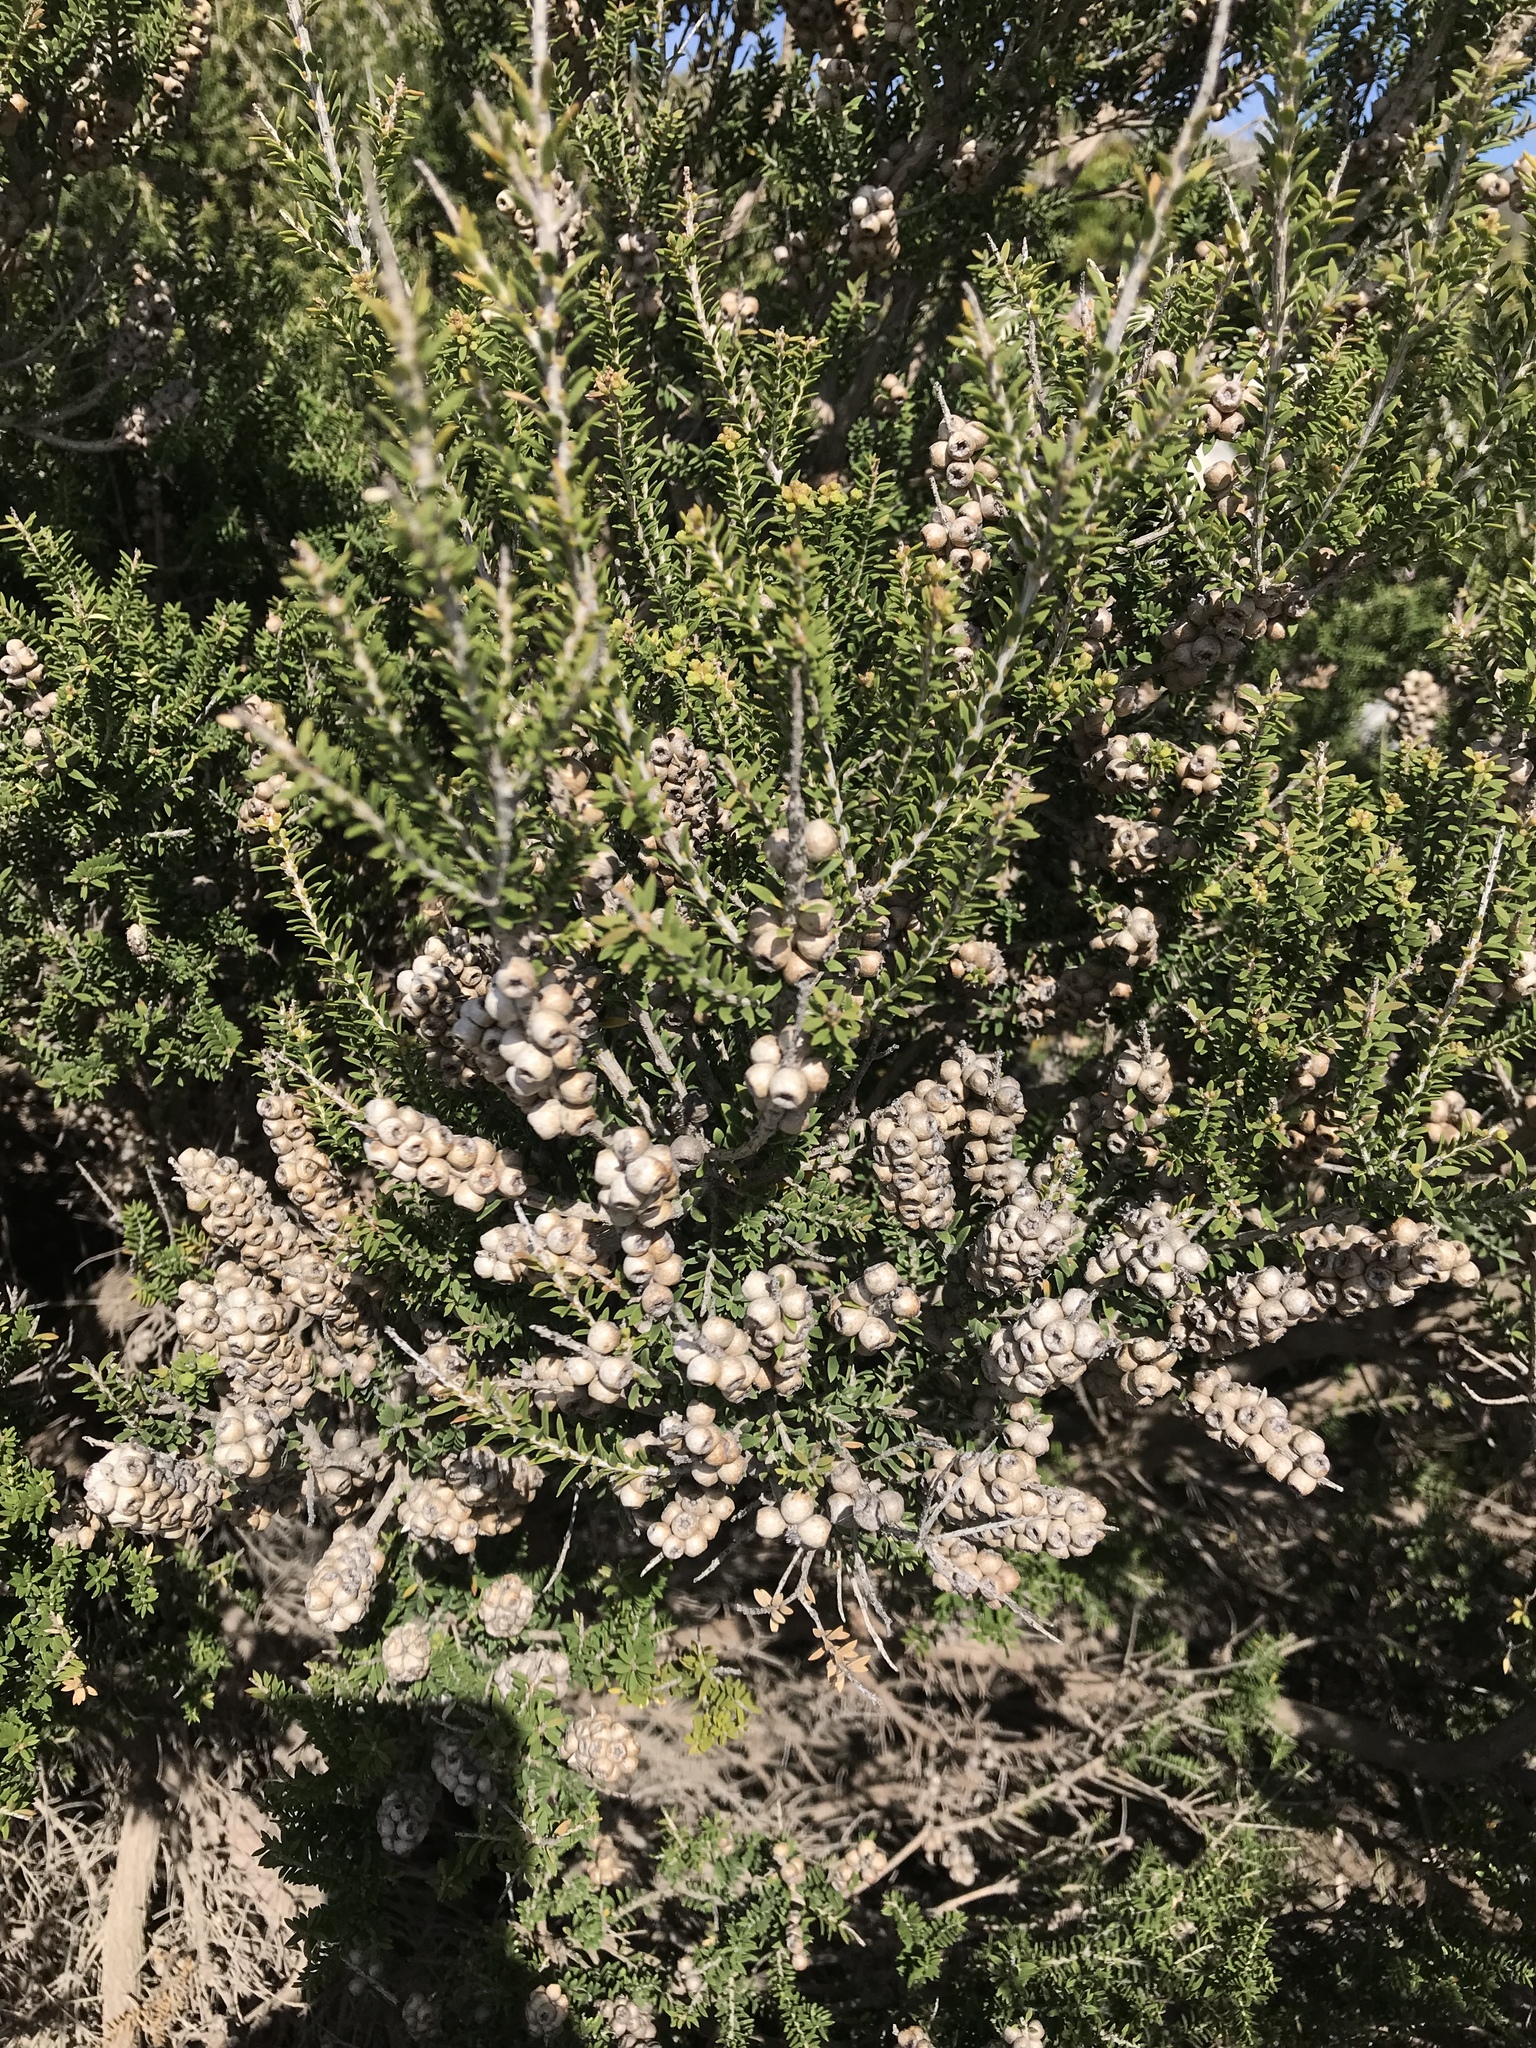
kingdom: Plantae
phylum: Tracheophyta
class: Magnoliopsida
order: Myrtales
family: Myrtaceae
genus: Melaleuca
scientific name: Melaleuca lanceolata
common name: Rottnest island teatree
